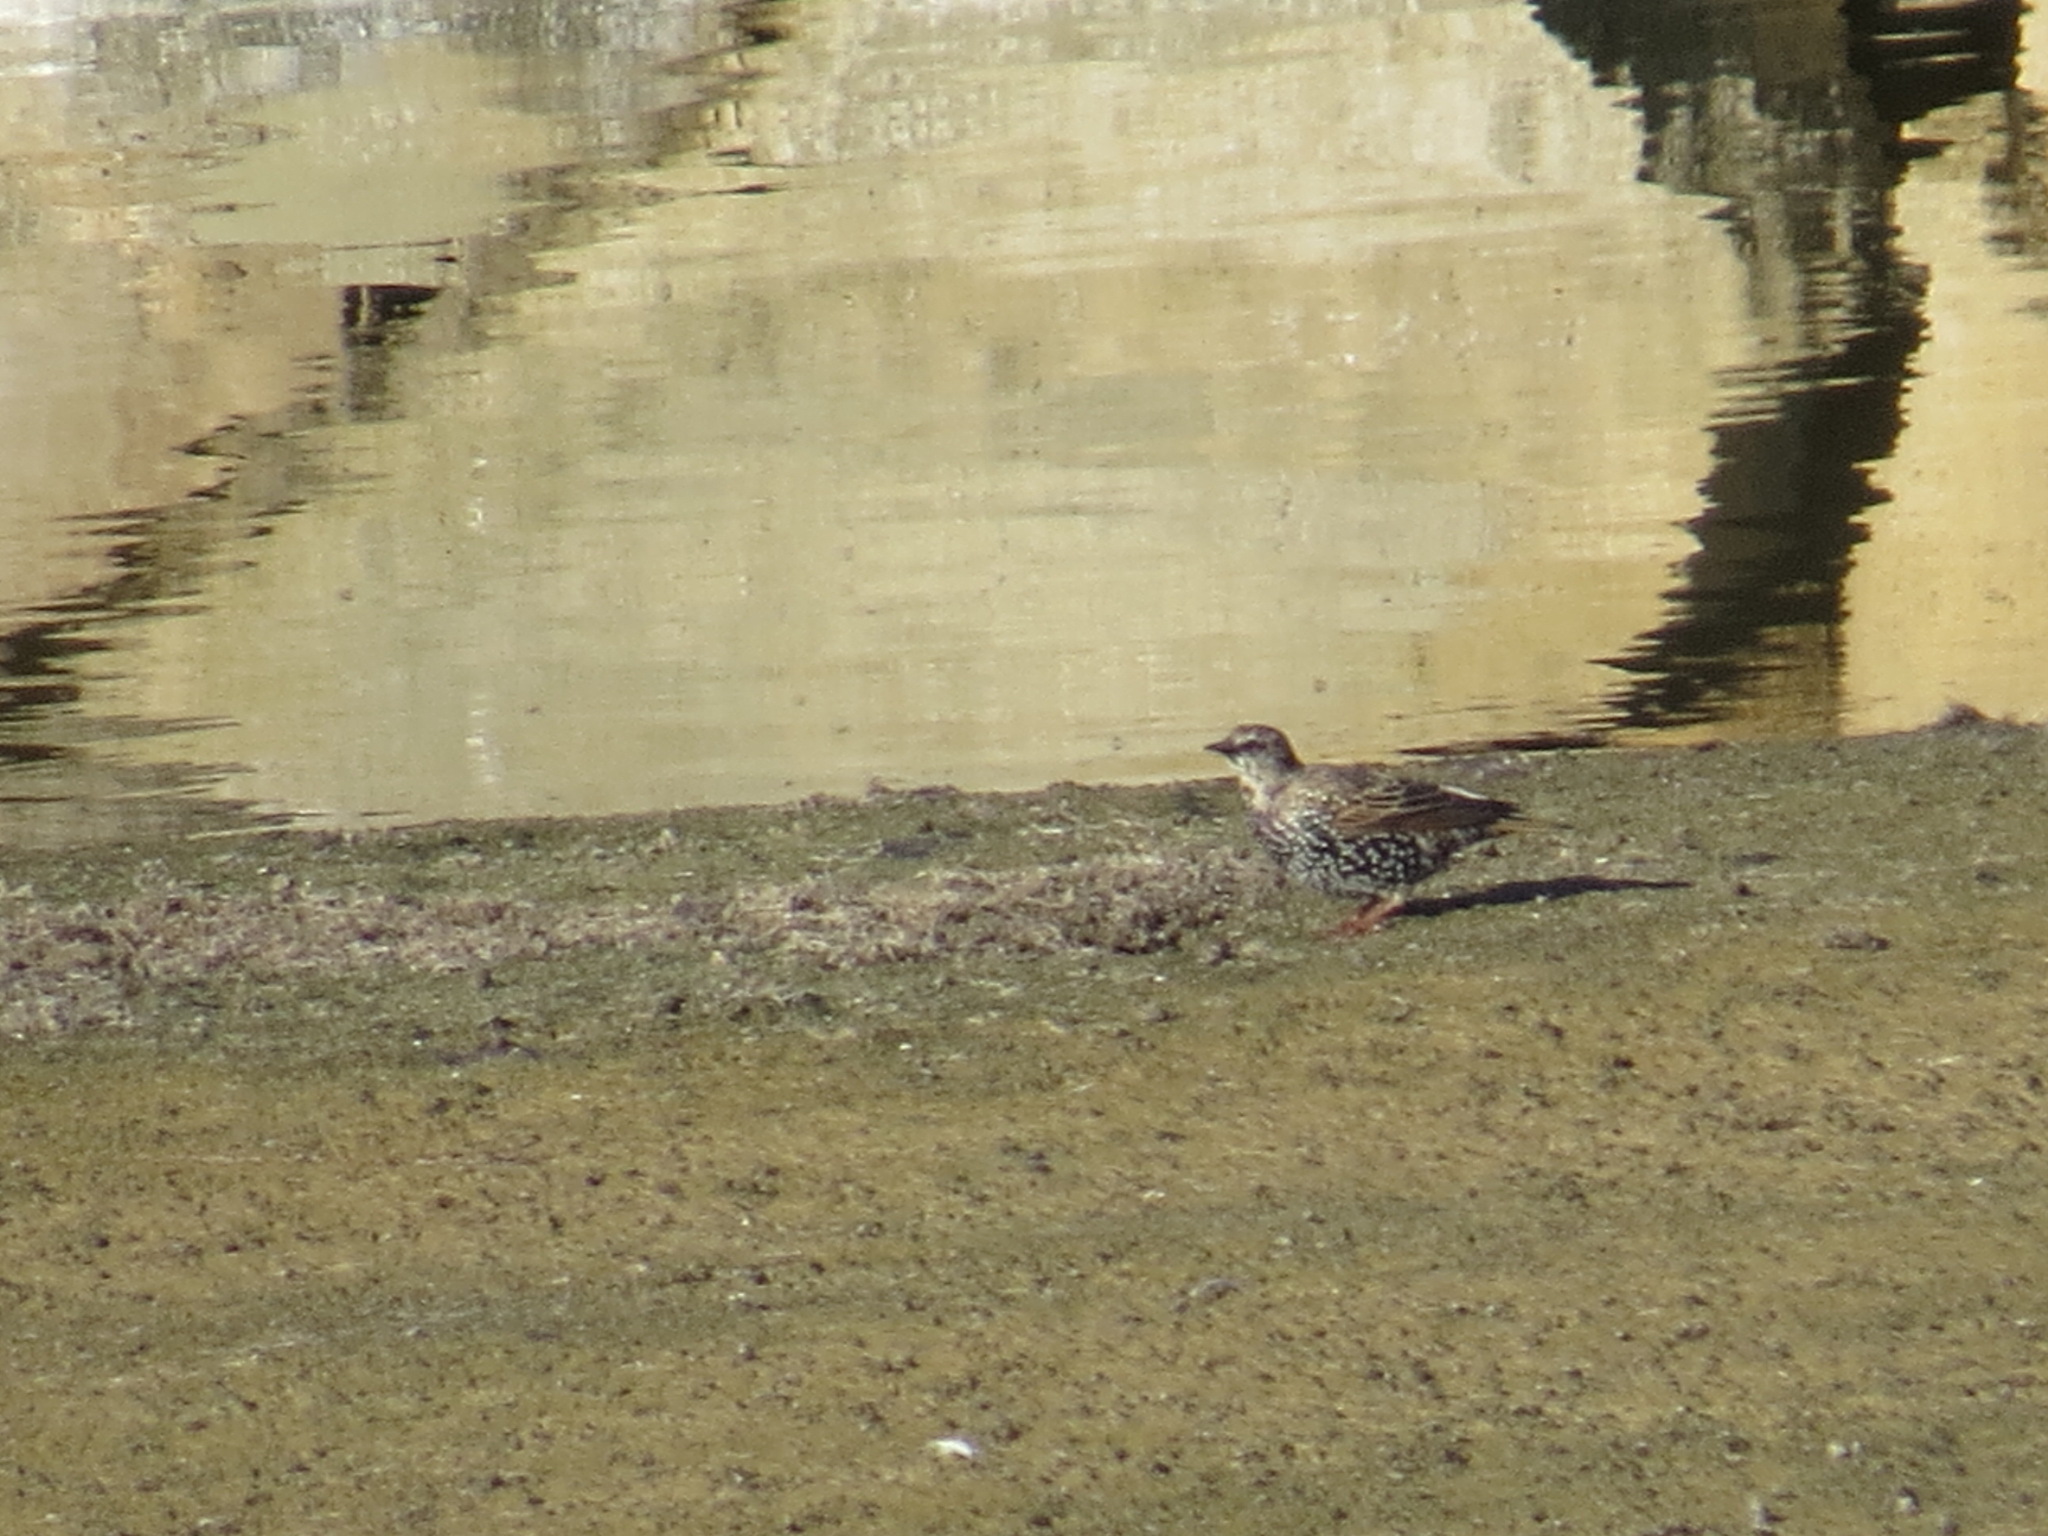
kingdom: Animalia
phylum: Chordata
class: Aves
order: Passeriformes
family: Sturnidae
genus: Sturnus
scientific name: Sturnus vulgaris
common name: Common starling
